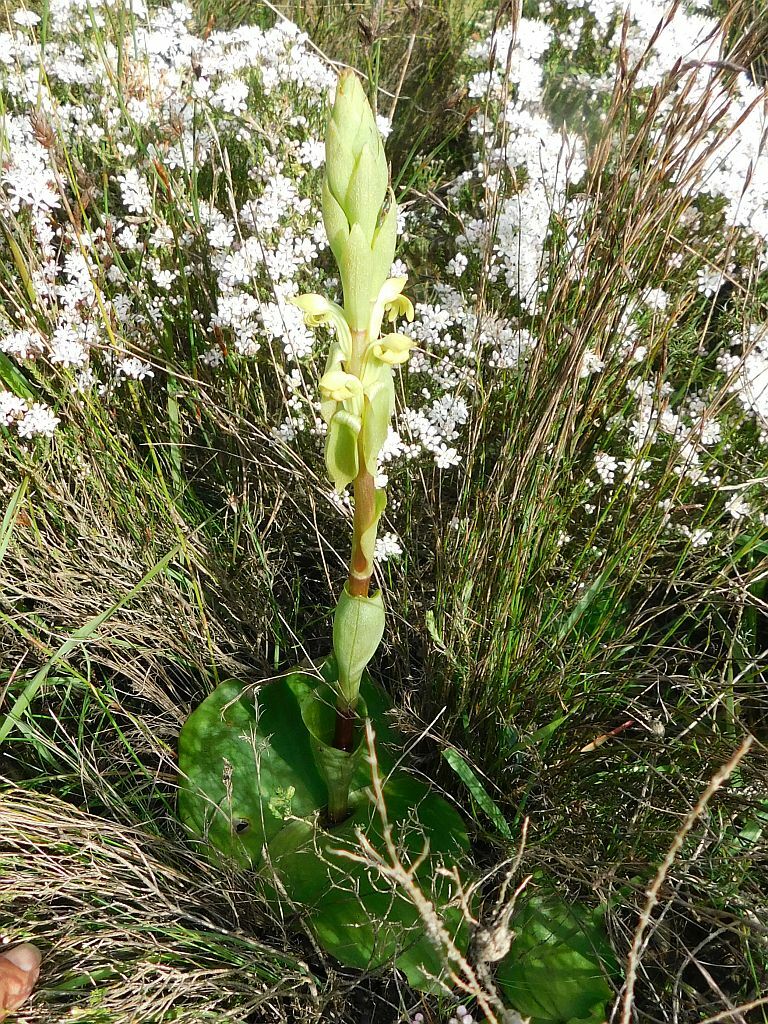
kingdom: Plantae
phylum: Tracheophyta
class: Liliopsida
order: Asparagales
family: Orchidaceae
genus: Satyrium
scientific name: Satyrium bicorne
